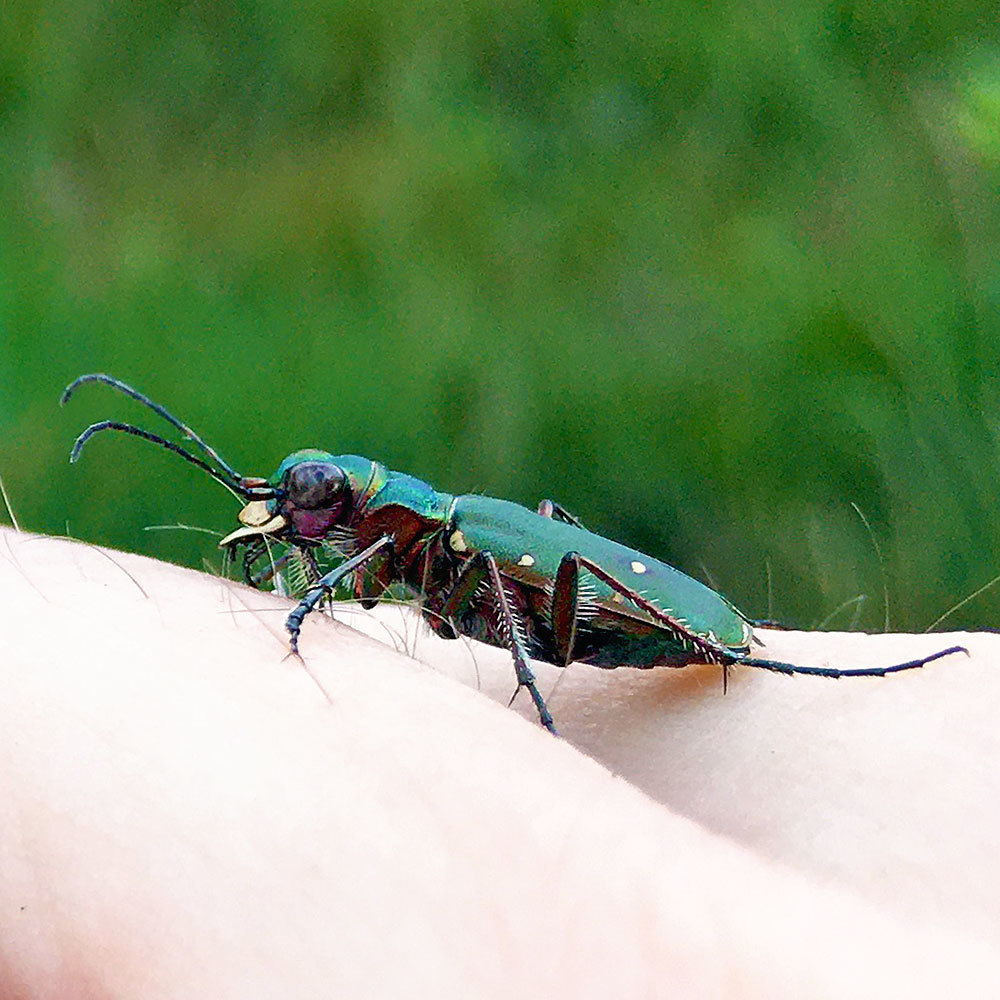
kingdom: Animalia
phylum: Arthropoda
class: Insecta
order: Coleoptera
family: Carabidae
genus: Cicindela
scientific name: Cicindela campestris
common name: Common tiger beetle
